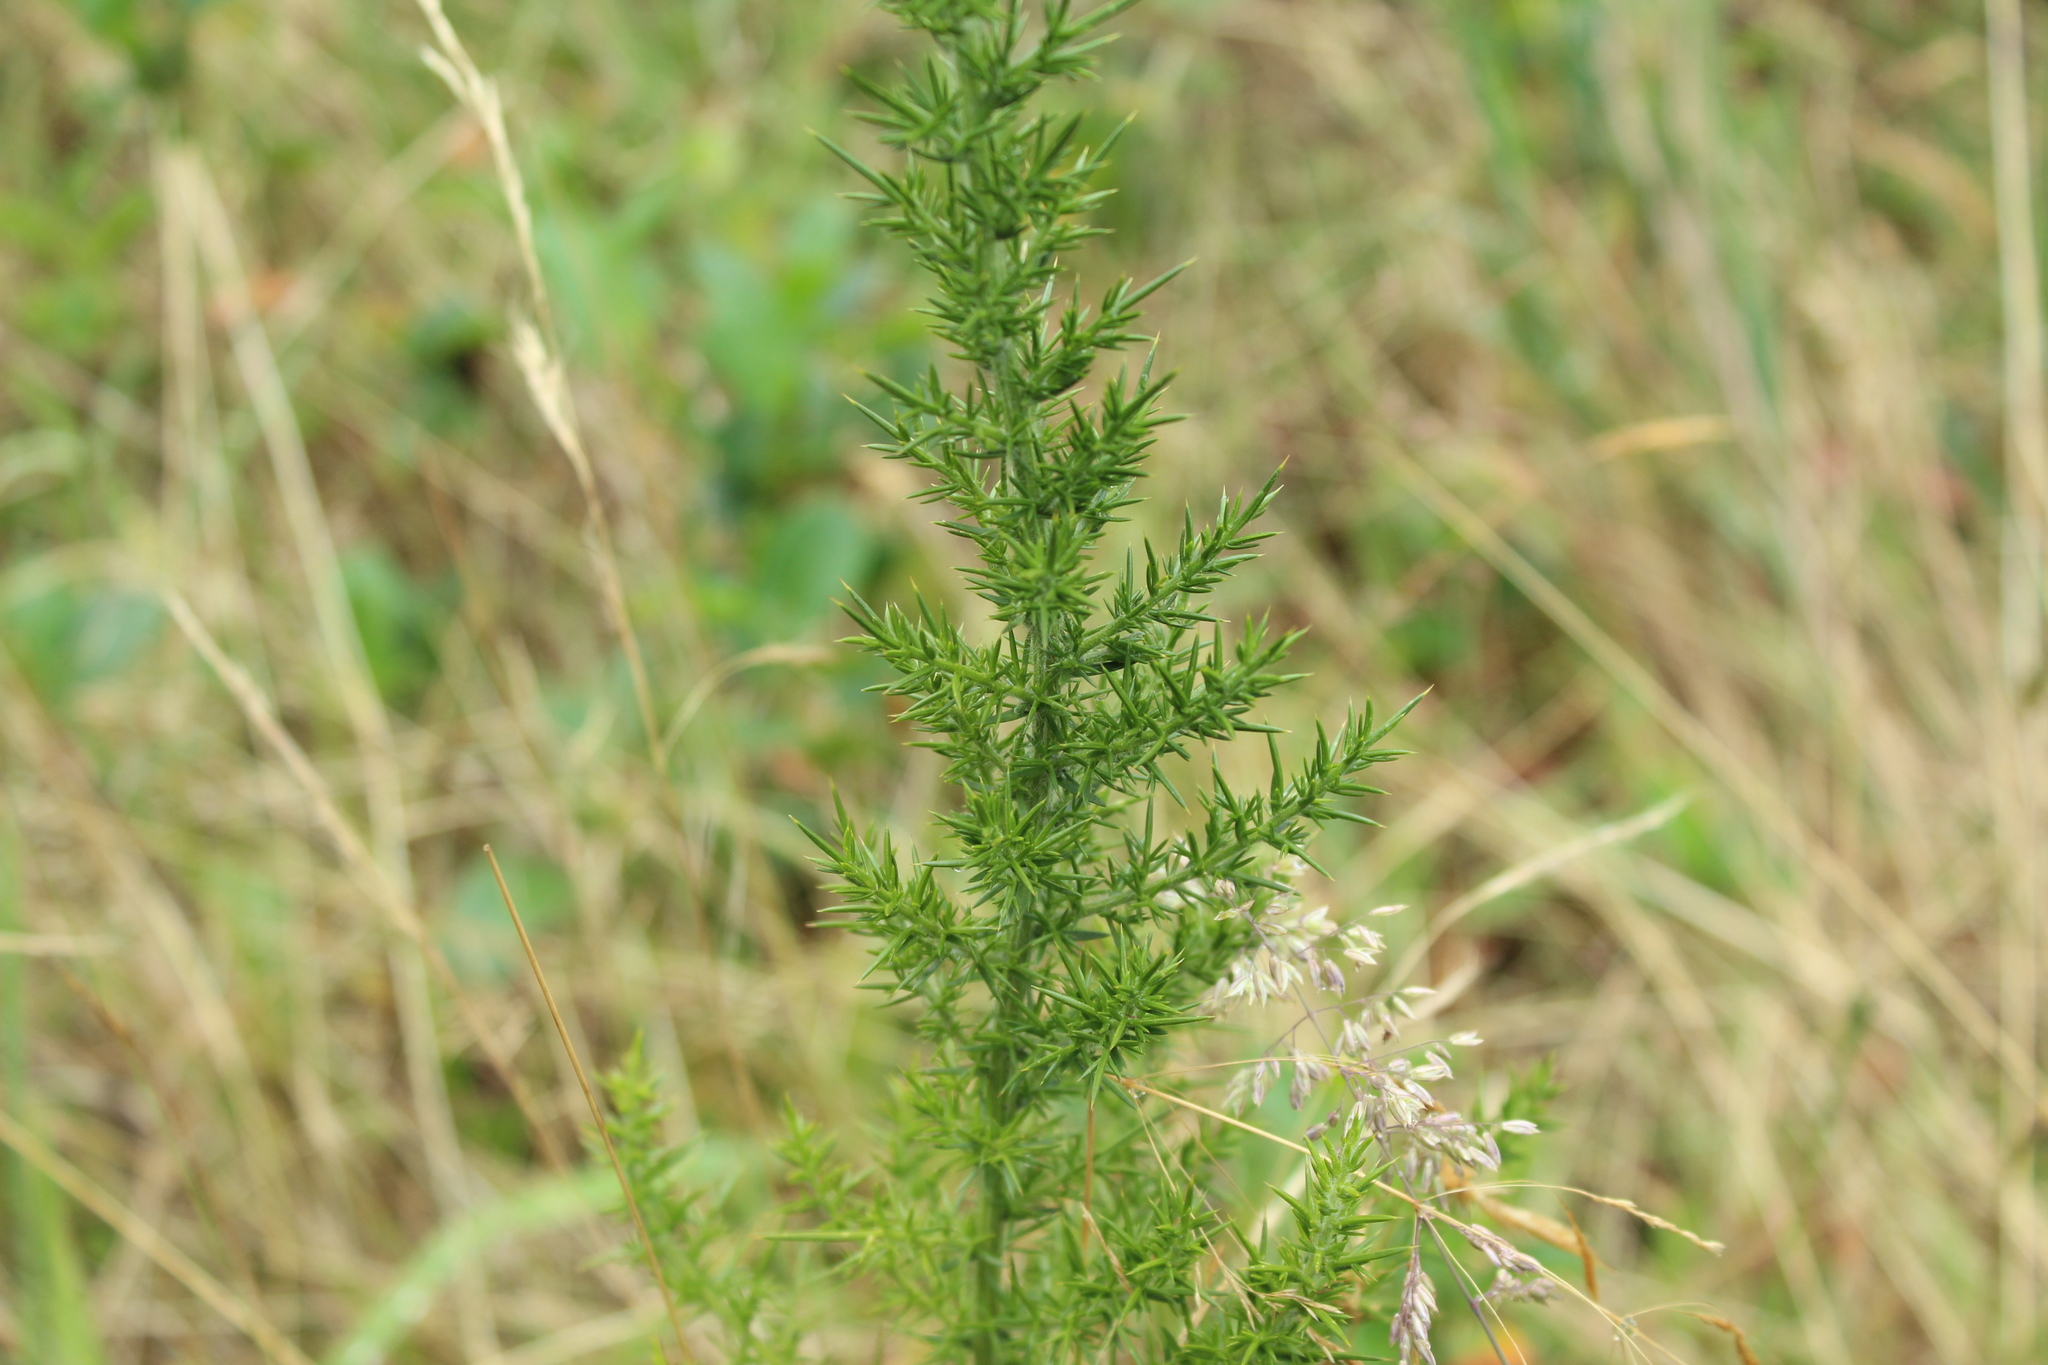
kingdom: Plantae
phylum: Tracheophyta
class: Magnoliopsida
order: Fabales
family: Fabaceae
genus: Ulex
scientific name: Ulex europaeus
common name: Common gorse
